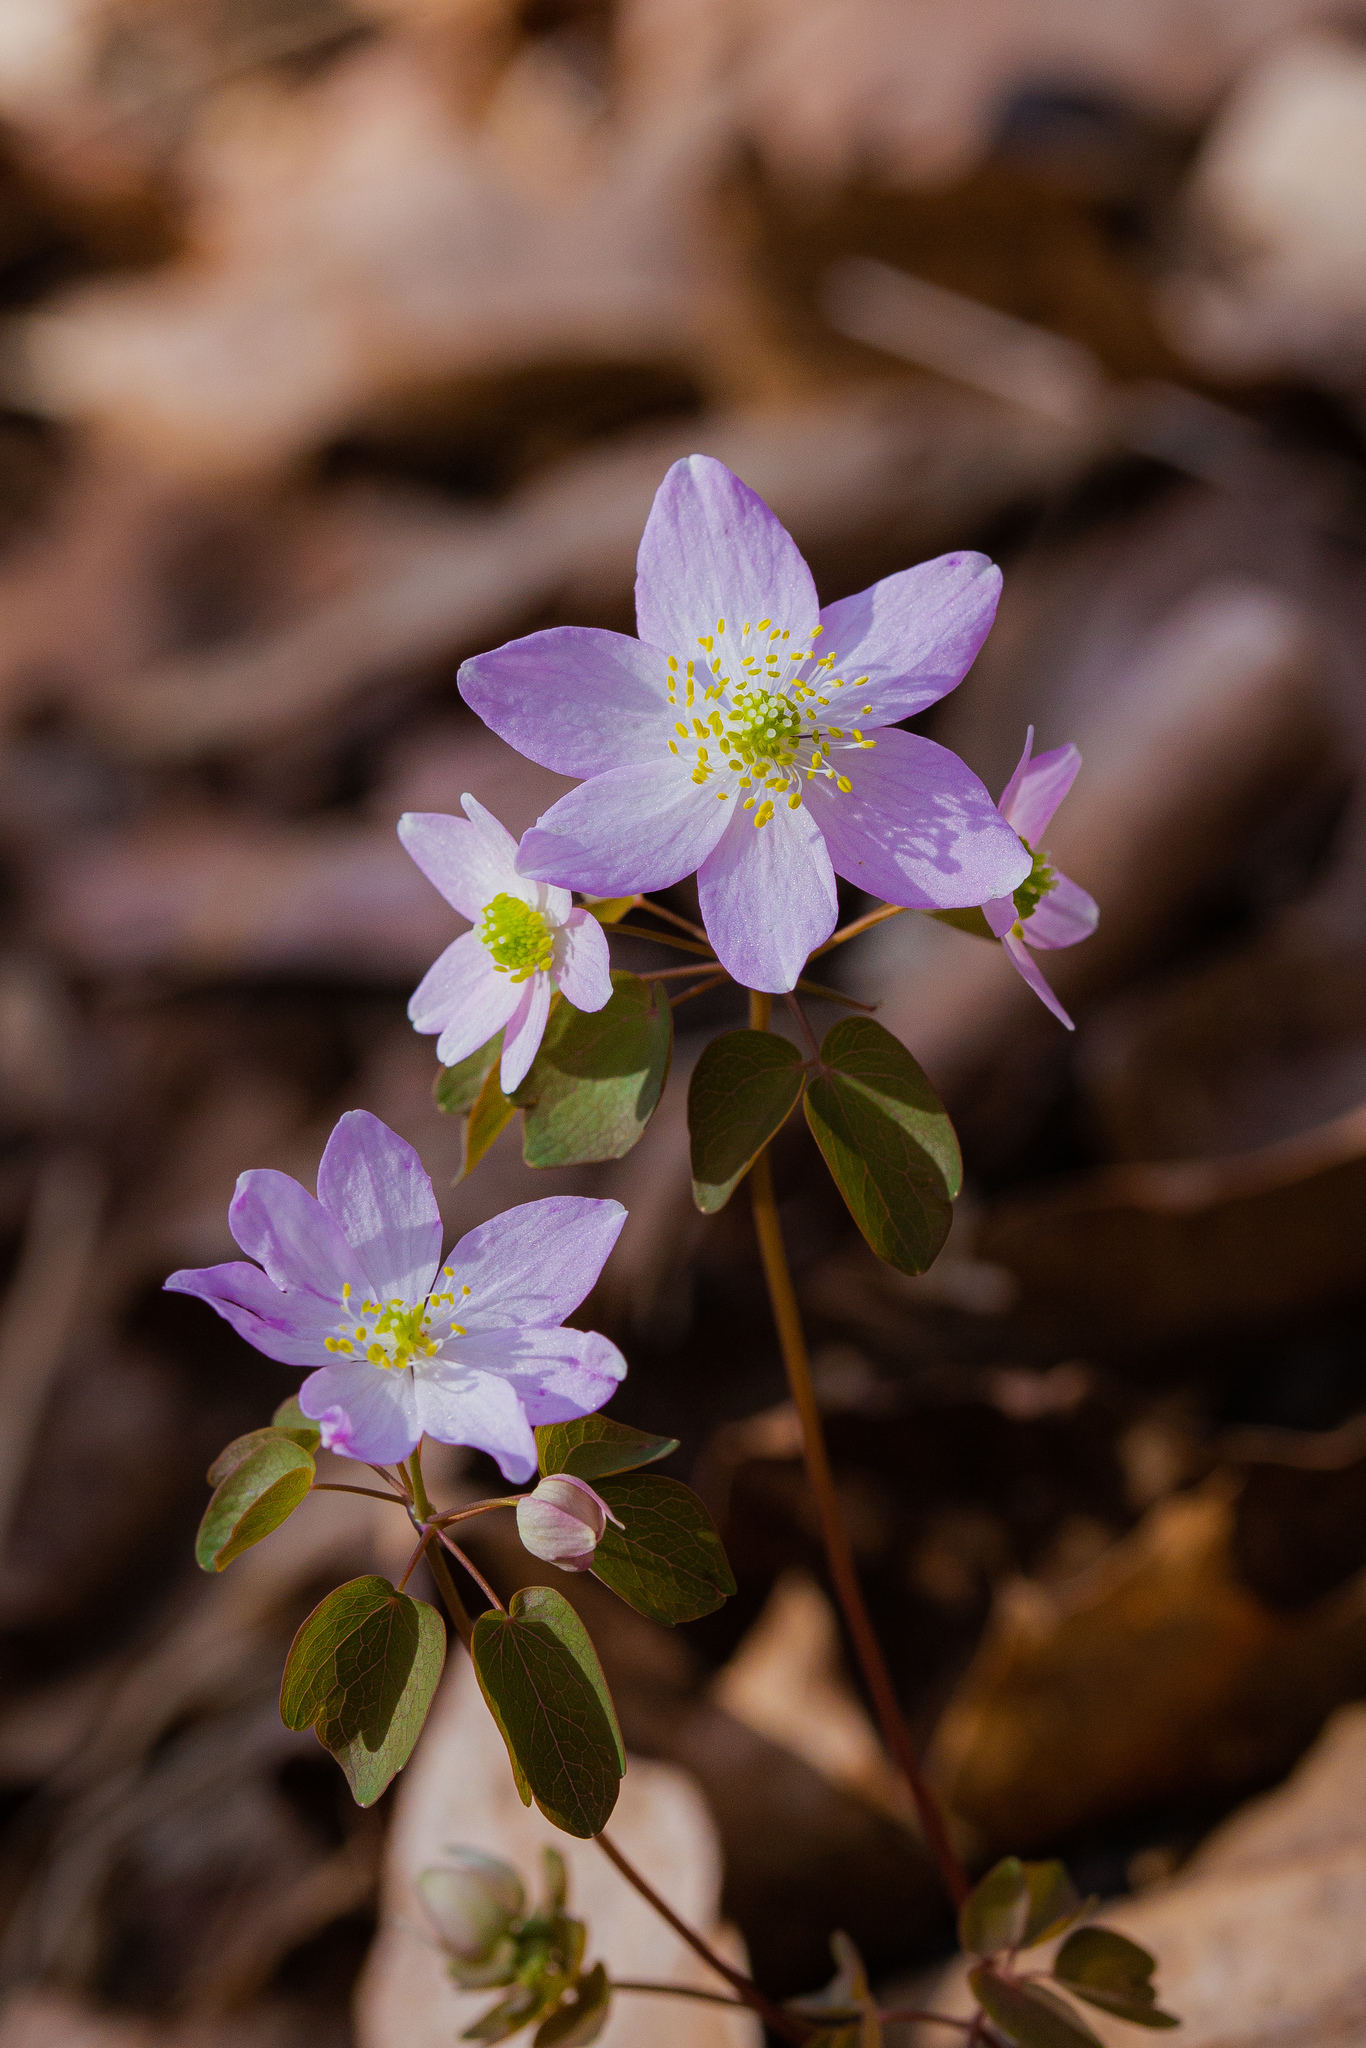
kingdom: Plantae
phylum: Tracheophyta
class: Magnoliopsida
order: Ranunculales
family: Ranunculaceae
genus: Thalictrum
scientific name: Thalictrum thalictroides
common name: Rue-anemone
